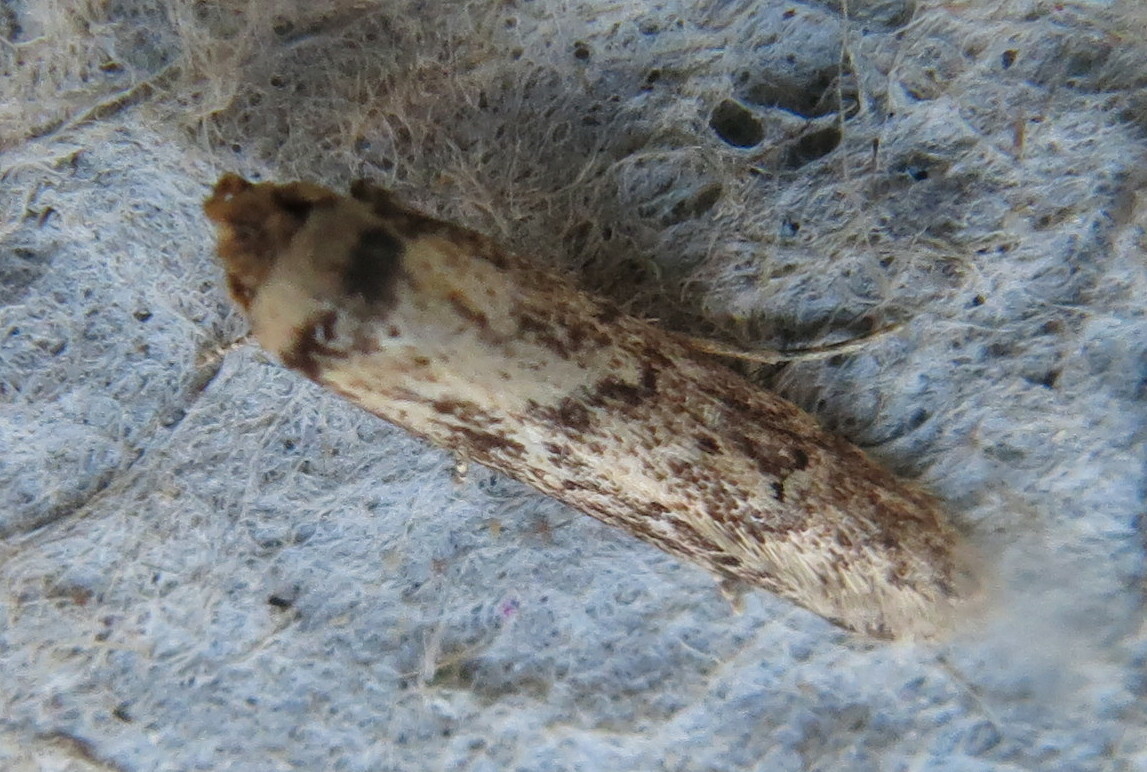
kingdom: Animalia
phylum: Arthropoda
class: Insecta
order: Lepidoptera
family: Blastobasidae
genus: Blastobasis
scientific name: Blastobasis adustella
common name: Dingy dowd
